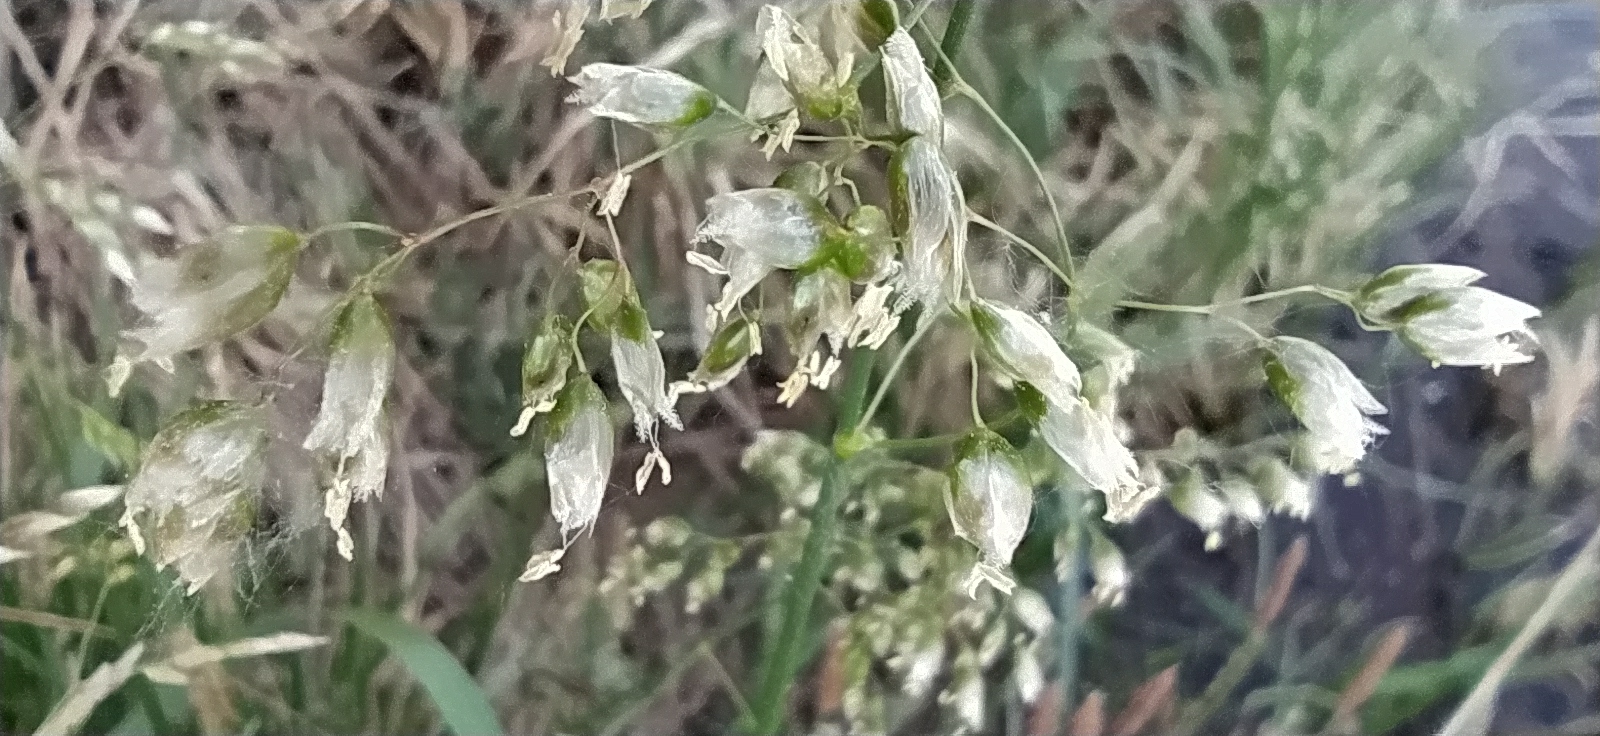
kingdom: Plantae
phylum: Tracheophyta
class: Liliopsida
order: Poales
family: Poaceae
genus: Anthoxanthum
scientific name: Anthoxanthum nitens
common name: Holy grass
